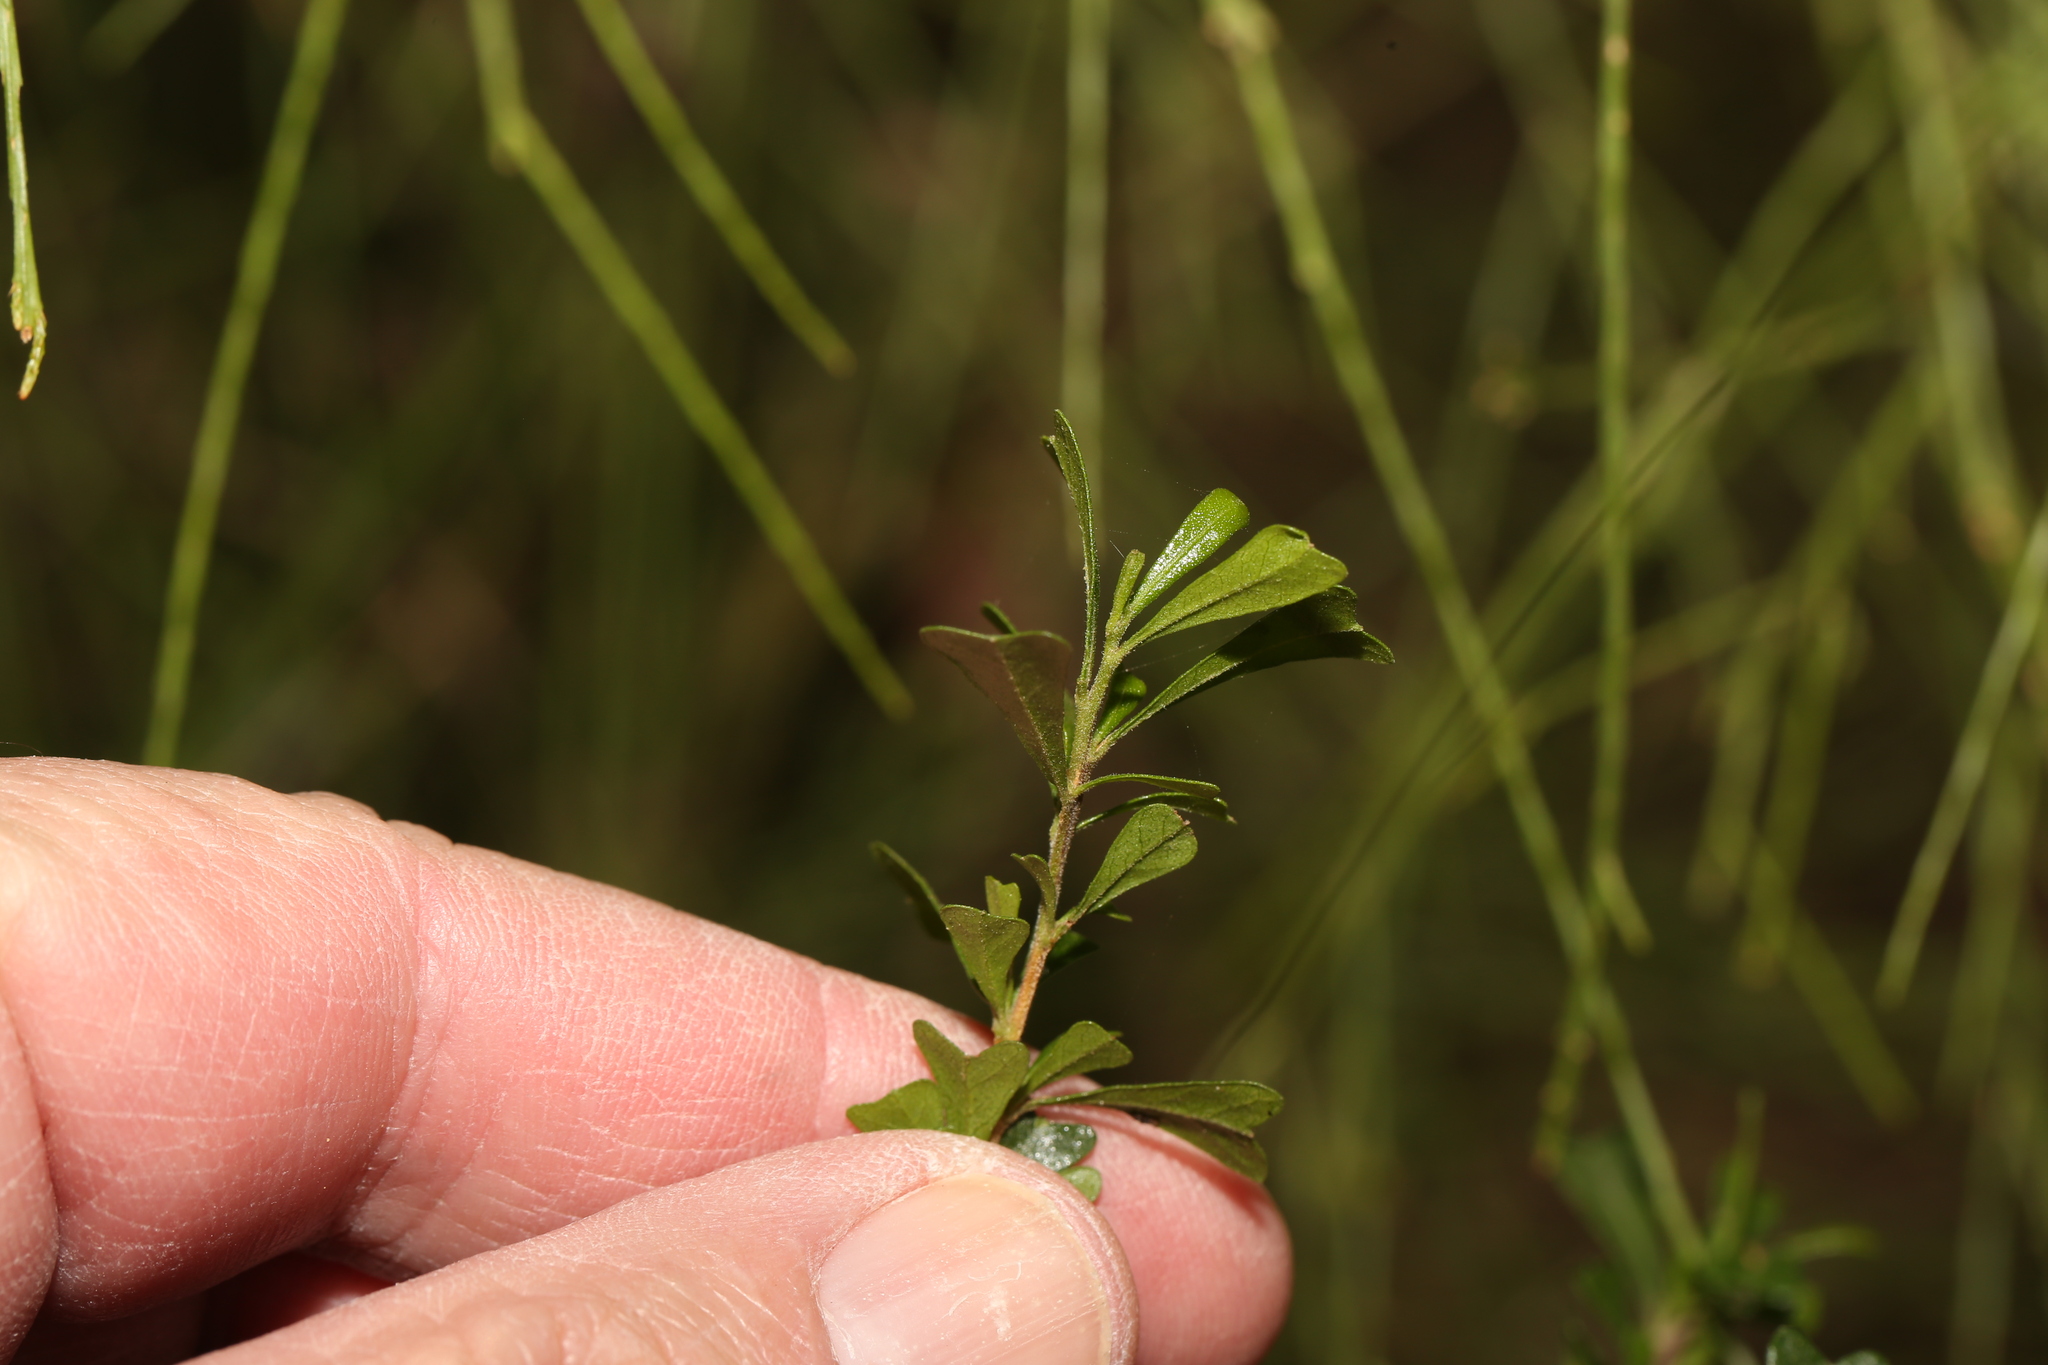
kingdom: Plantae
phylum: Tracheophyta
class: Magnoliopsida
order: Sapindales
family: Sapindaceae
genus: Dodonaea
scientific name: Dodonaea viscosa
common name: Hopbush
